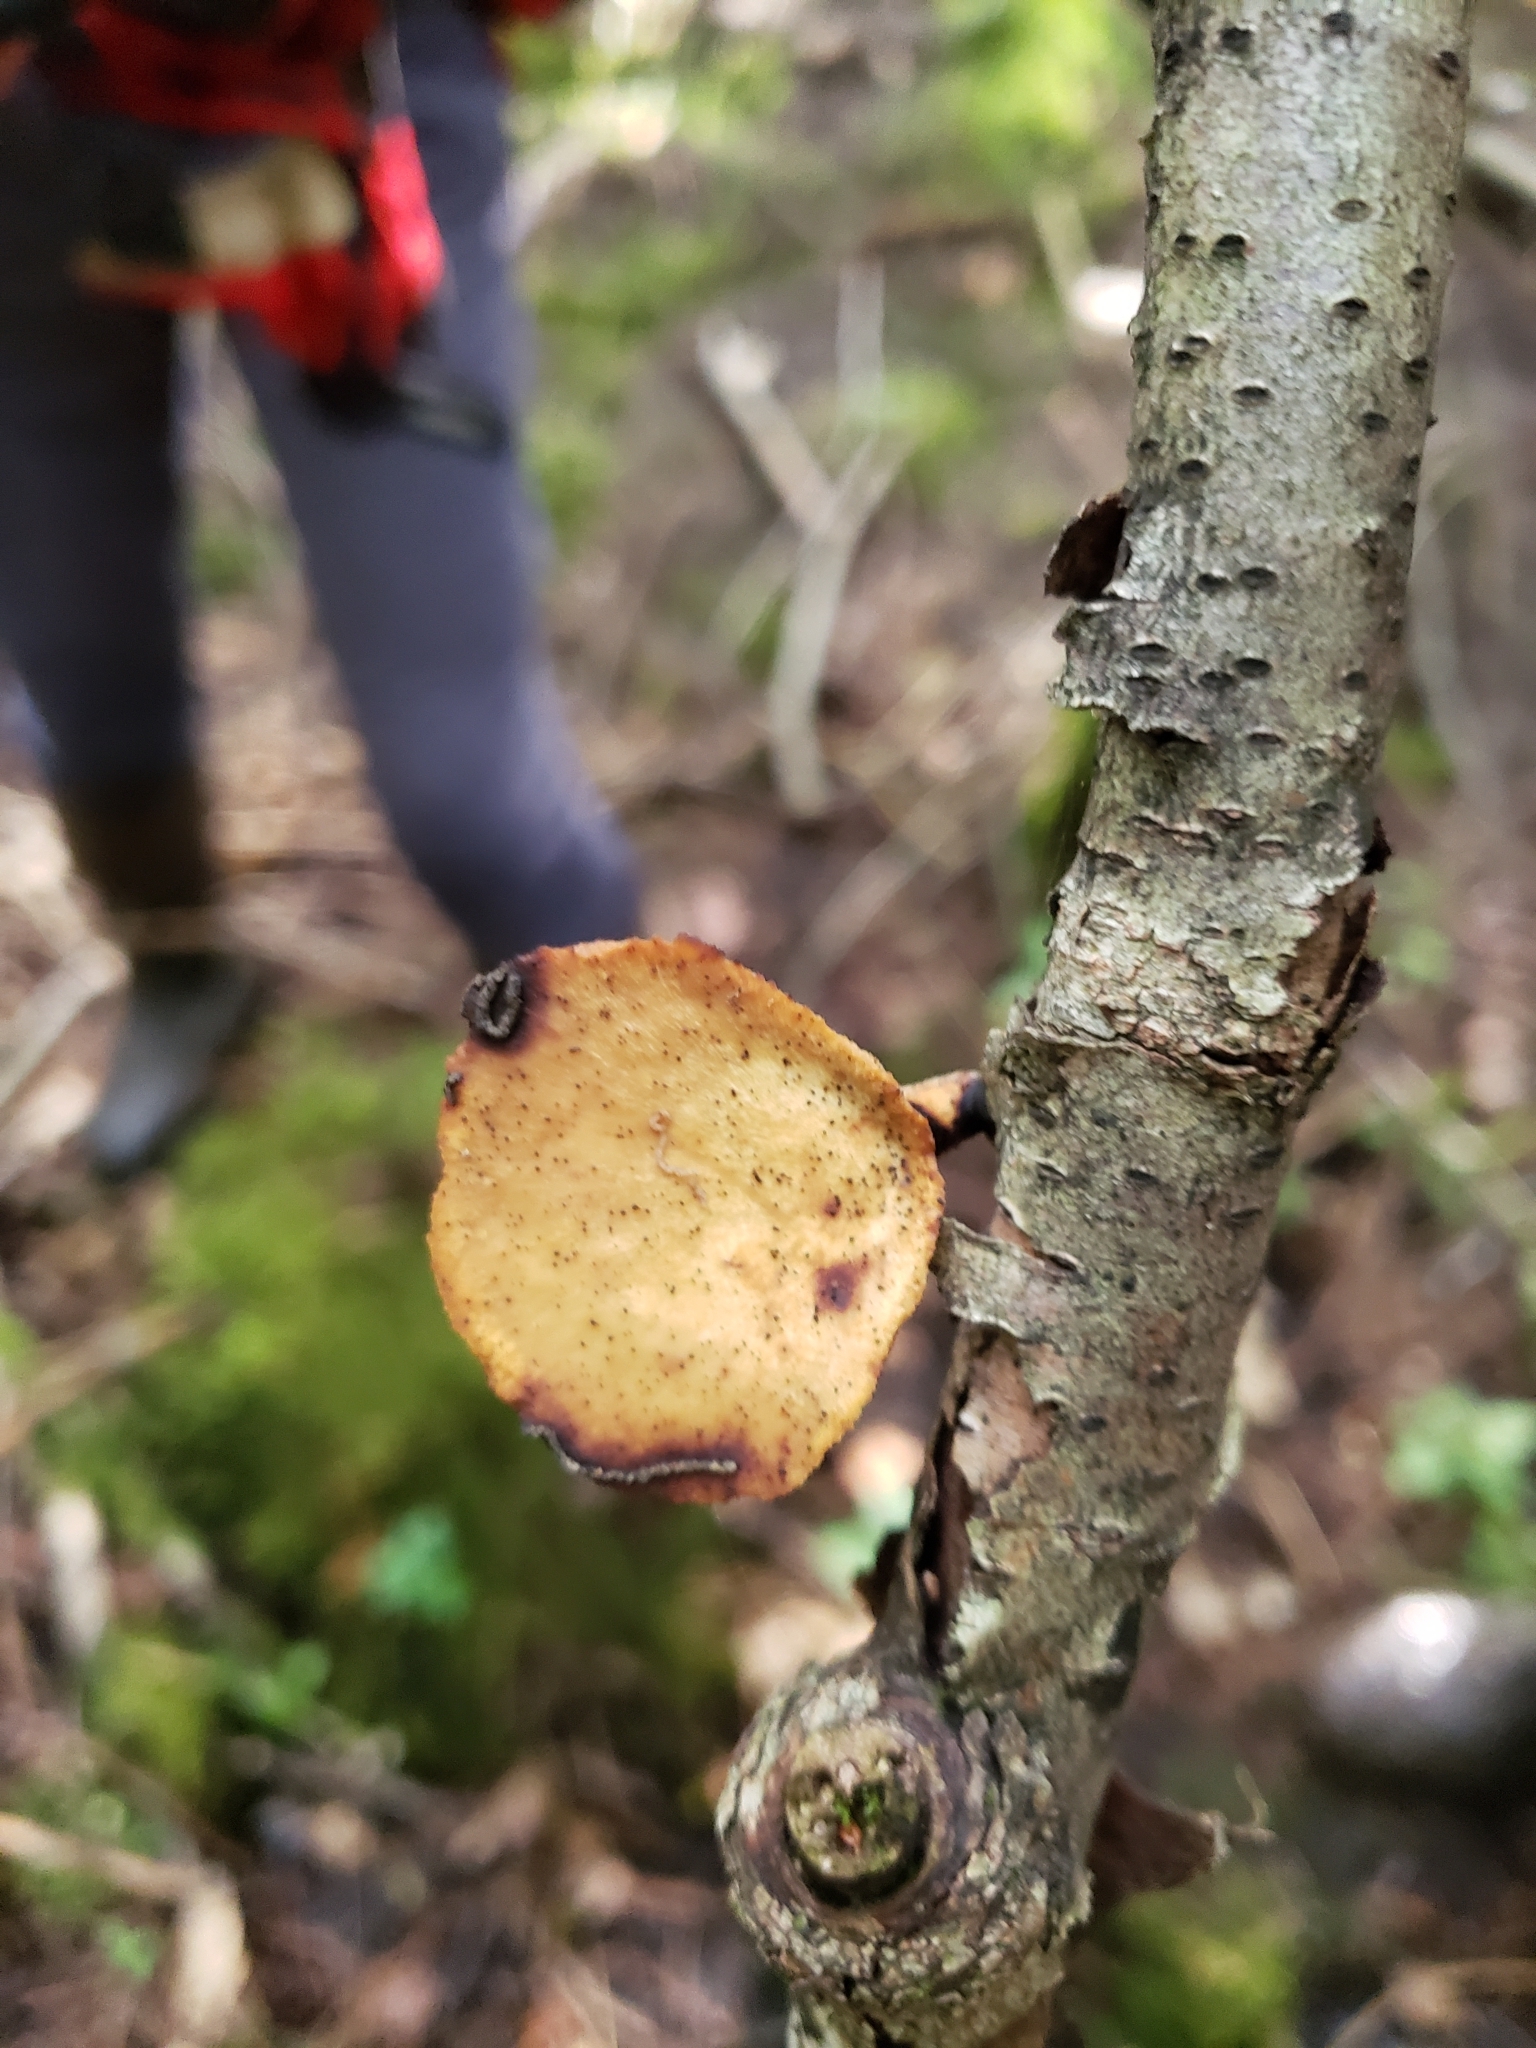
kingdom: Fungi
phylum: Basidiomycota
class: Agaricomycetes
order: Polyporales
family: Polyporaceae
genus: Cerioporus
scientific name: Cerioporus leptocephalus
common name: Blackfoot polypore
